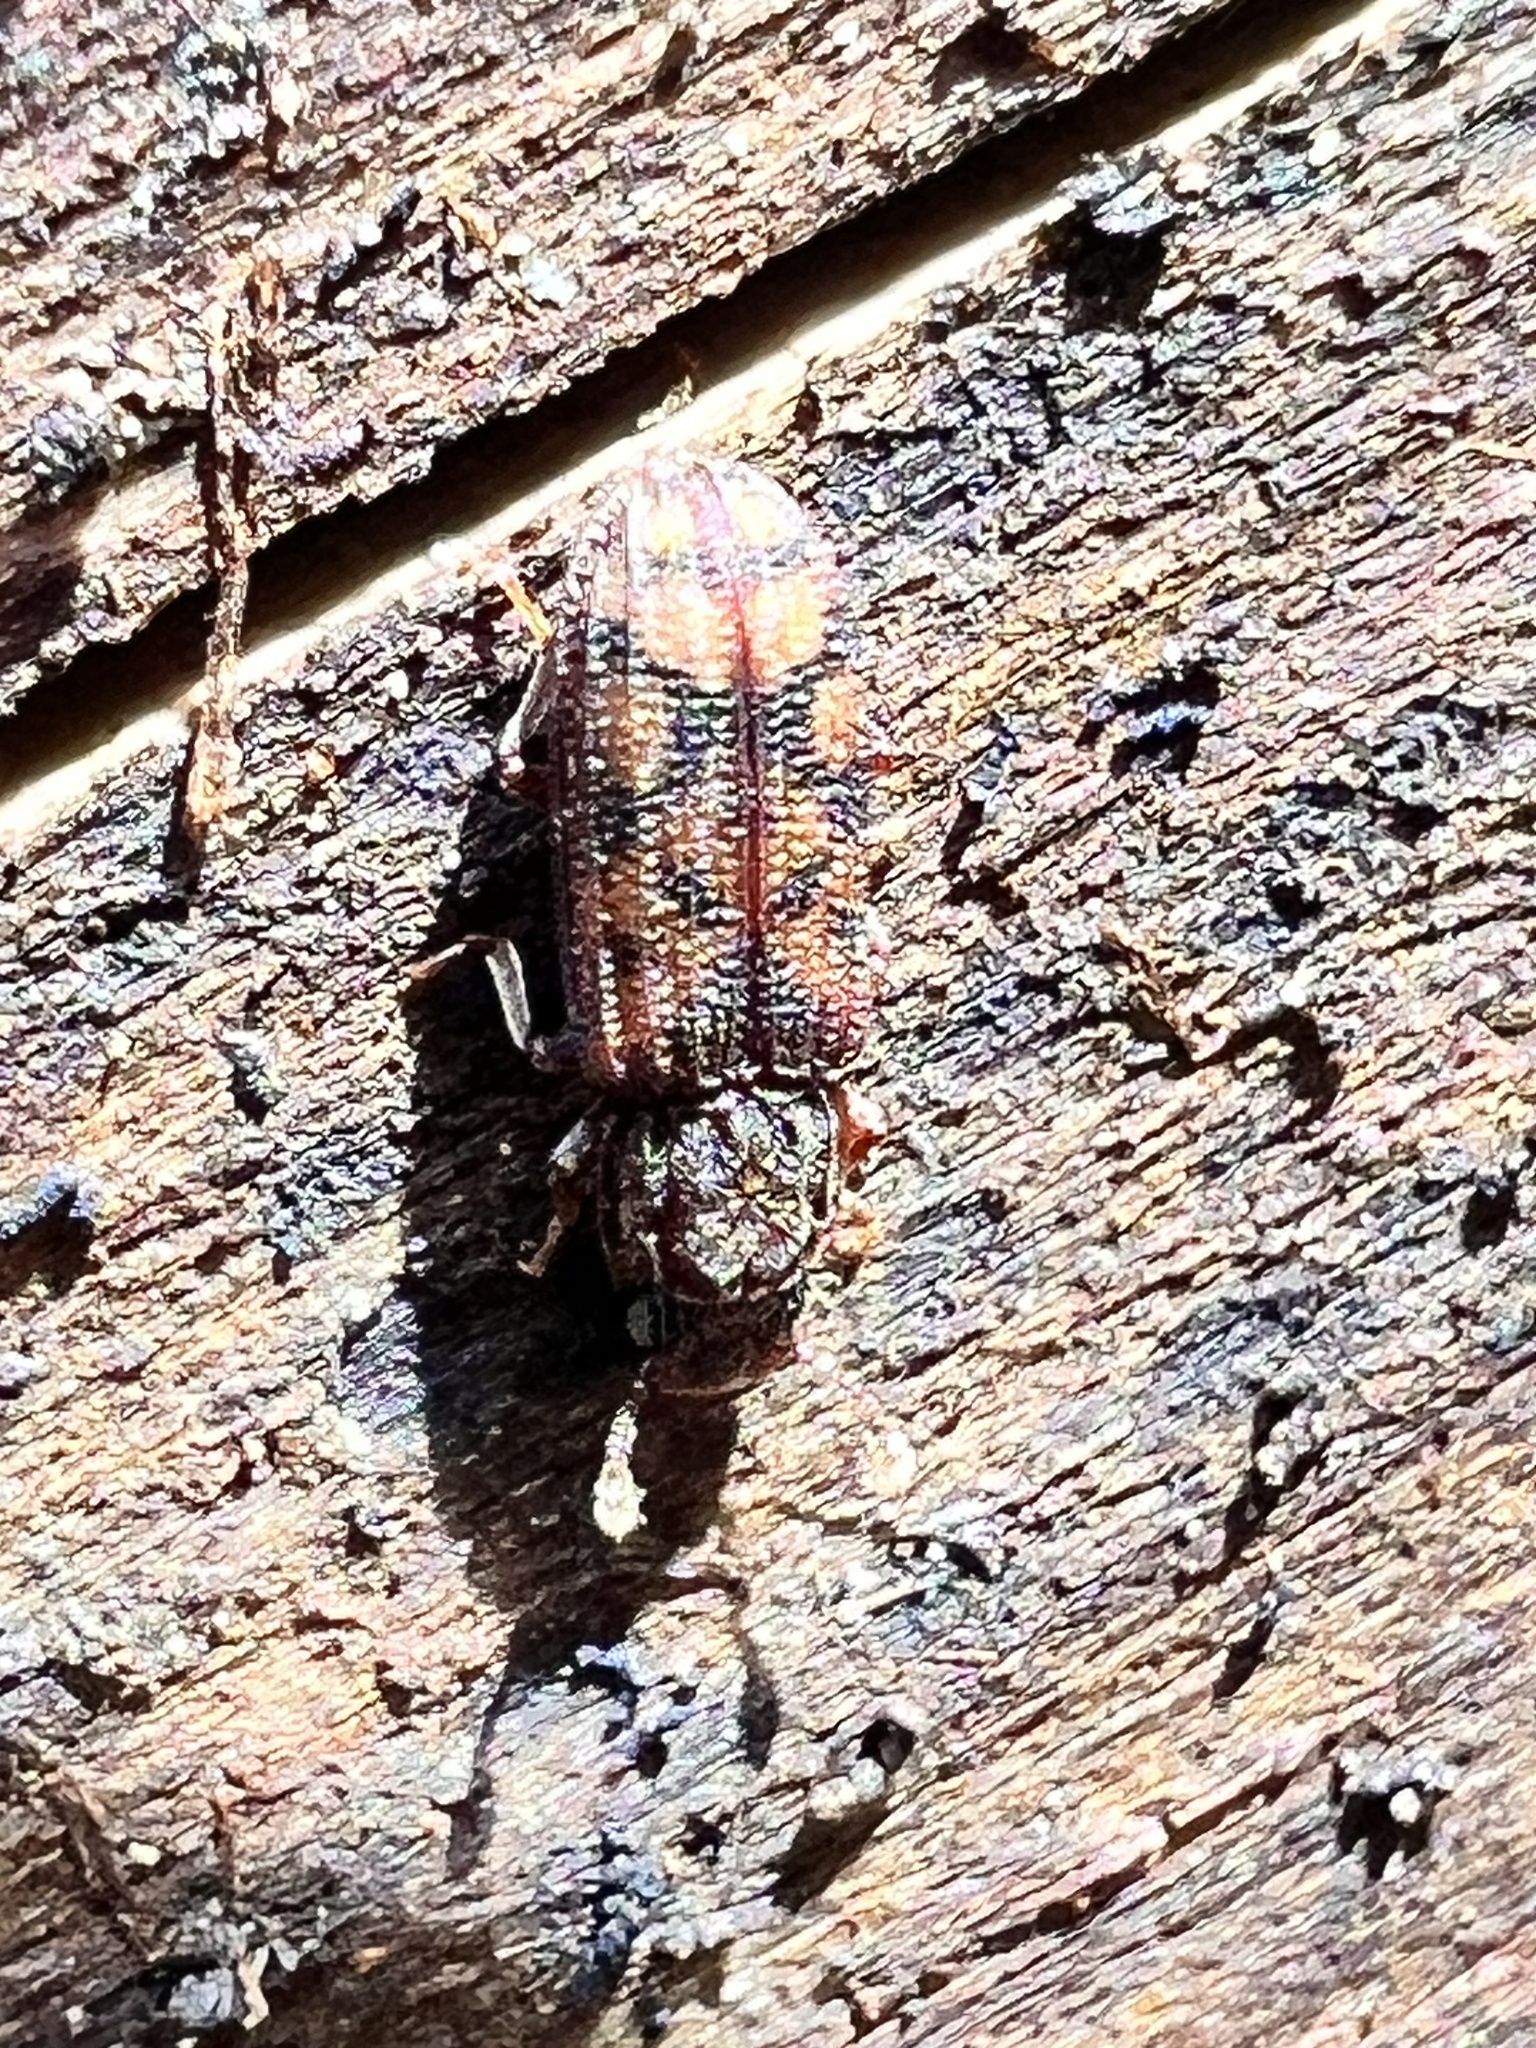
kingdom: Animalia
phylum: Arthropoda
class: Insecta
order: Coleoptera
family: Zopheridae
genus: Bitoma
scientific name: Bitoma insularis
